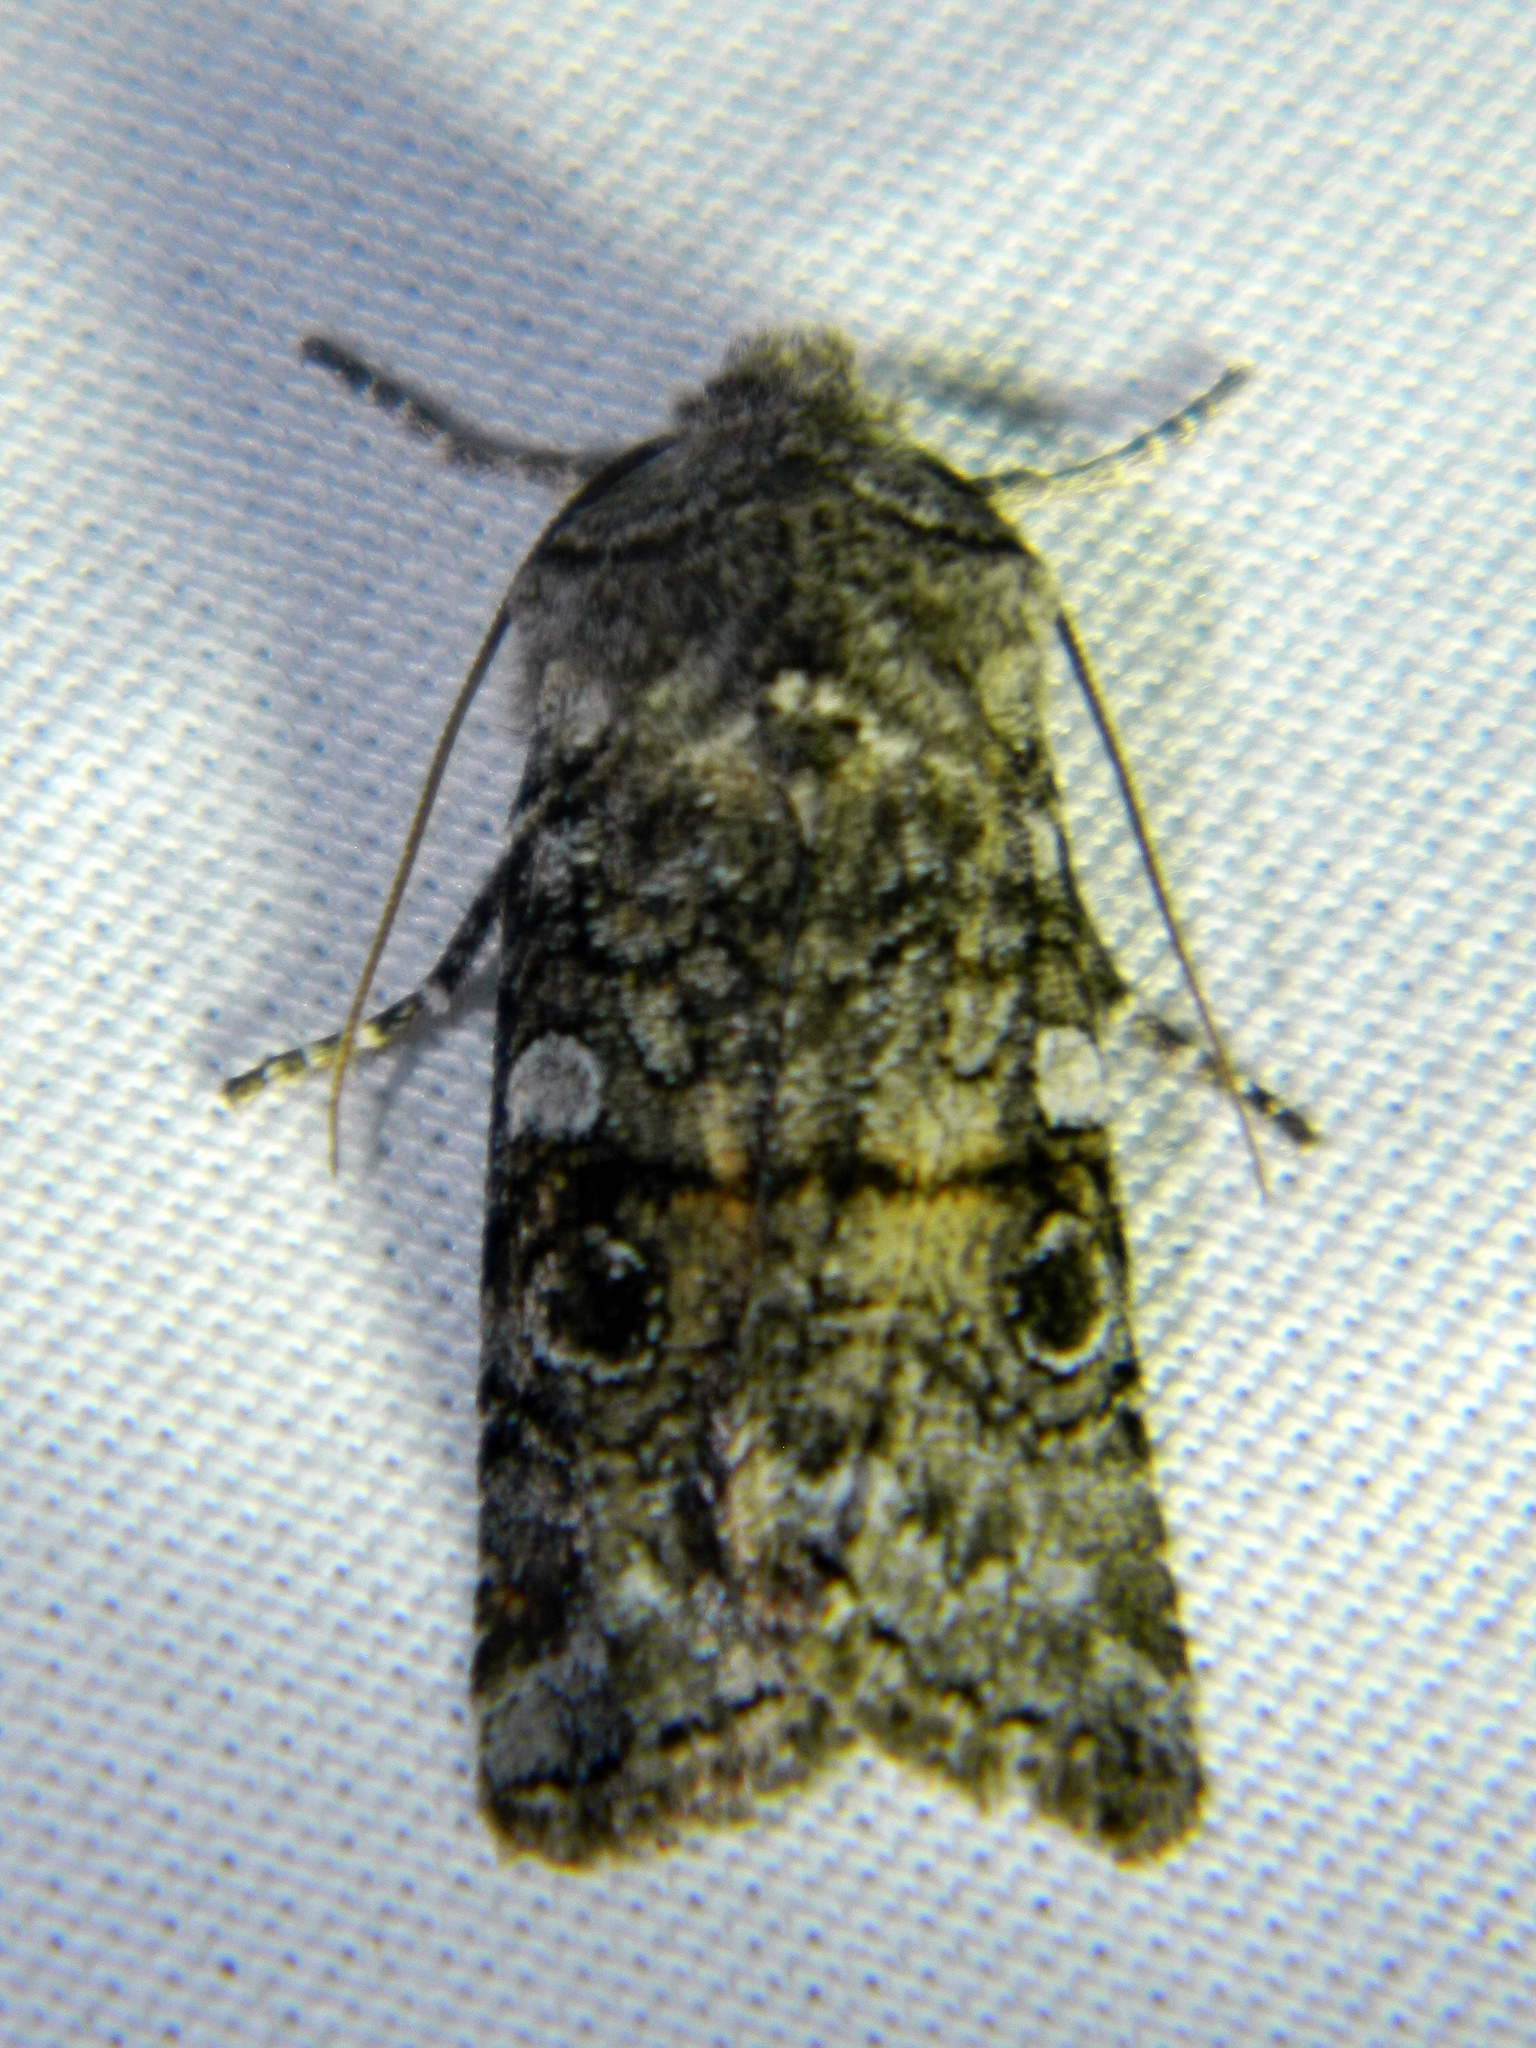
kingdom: Animalia
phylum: Arthropoda
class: Insecta
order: Lepidoptera
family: Noctuidae
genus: Litholomia
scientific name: Litholomia napaea
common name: False pinion moth
